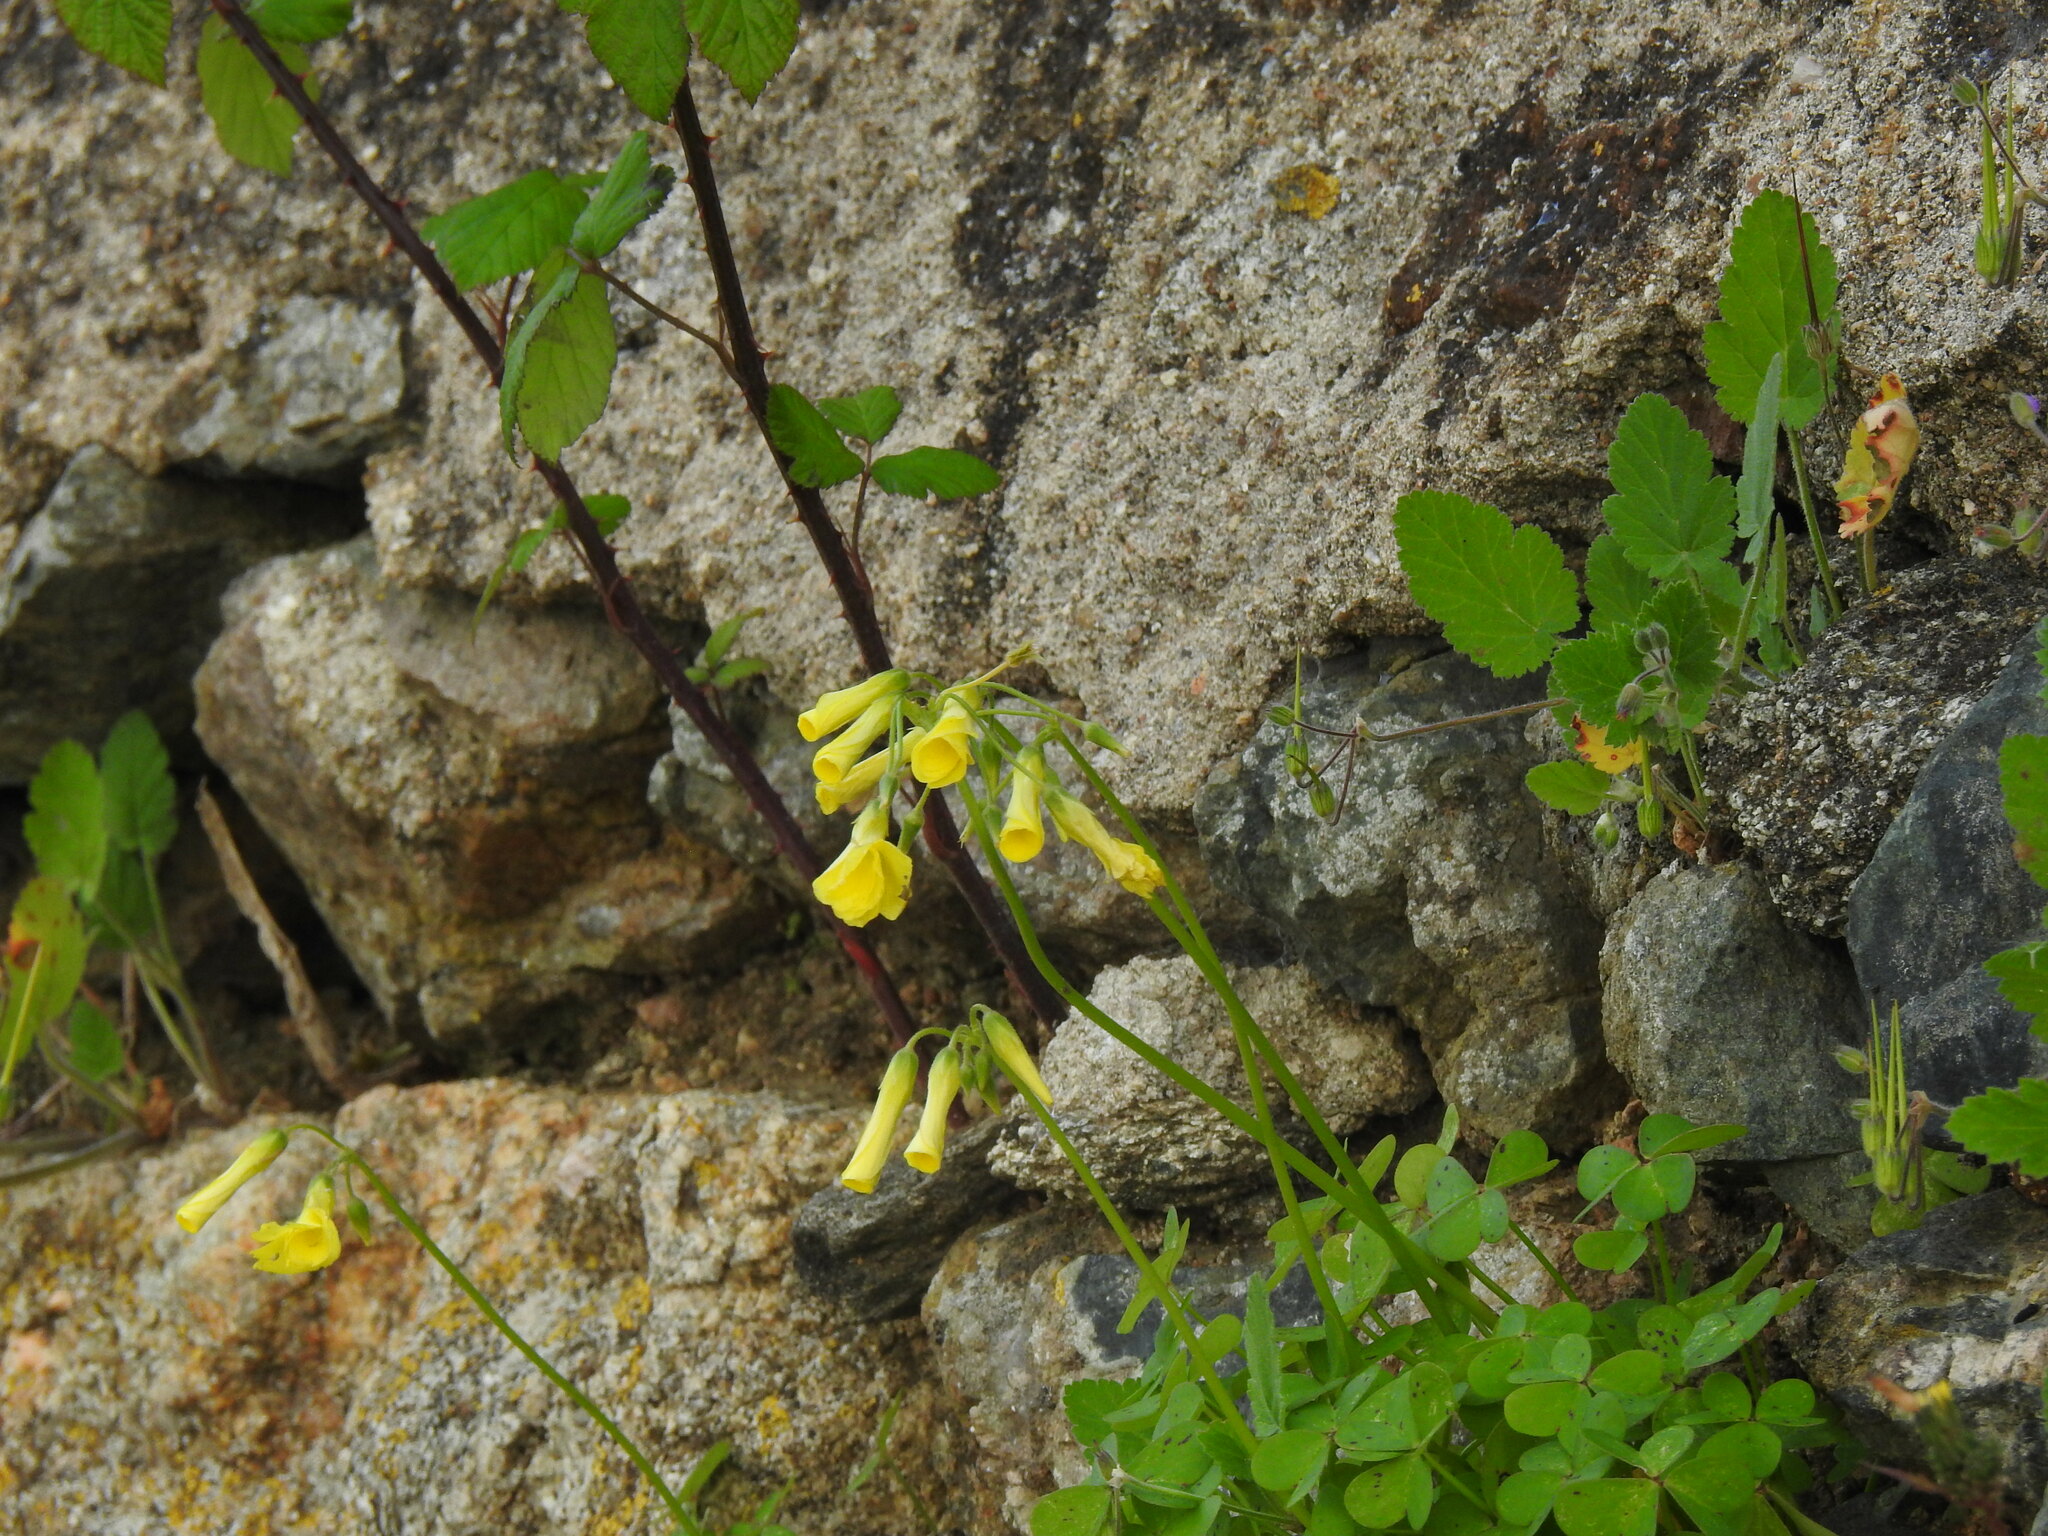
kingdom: Plantae
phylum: Tracheophyta
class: Magnoliopsida
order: Oxalidales
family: Oxalidaceae
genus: Oxalis
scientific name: Oxalis pes-caprae
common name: Bermuda-buttercup
